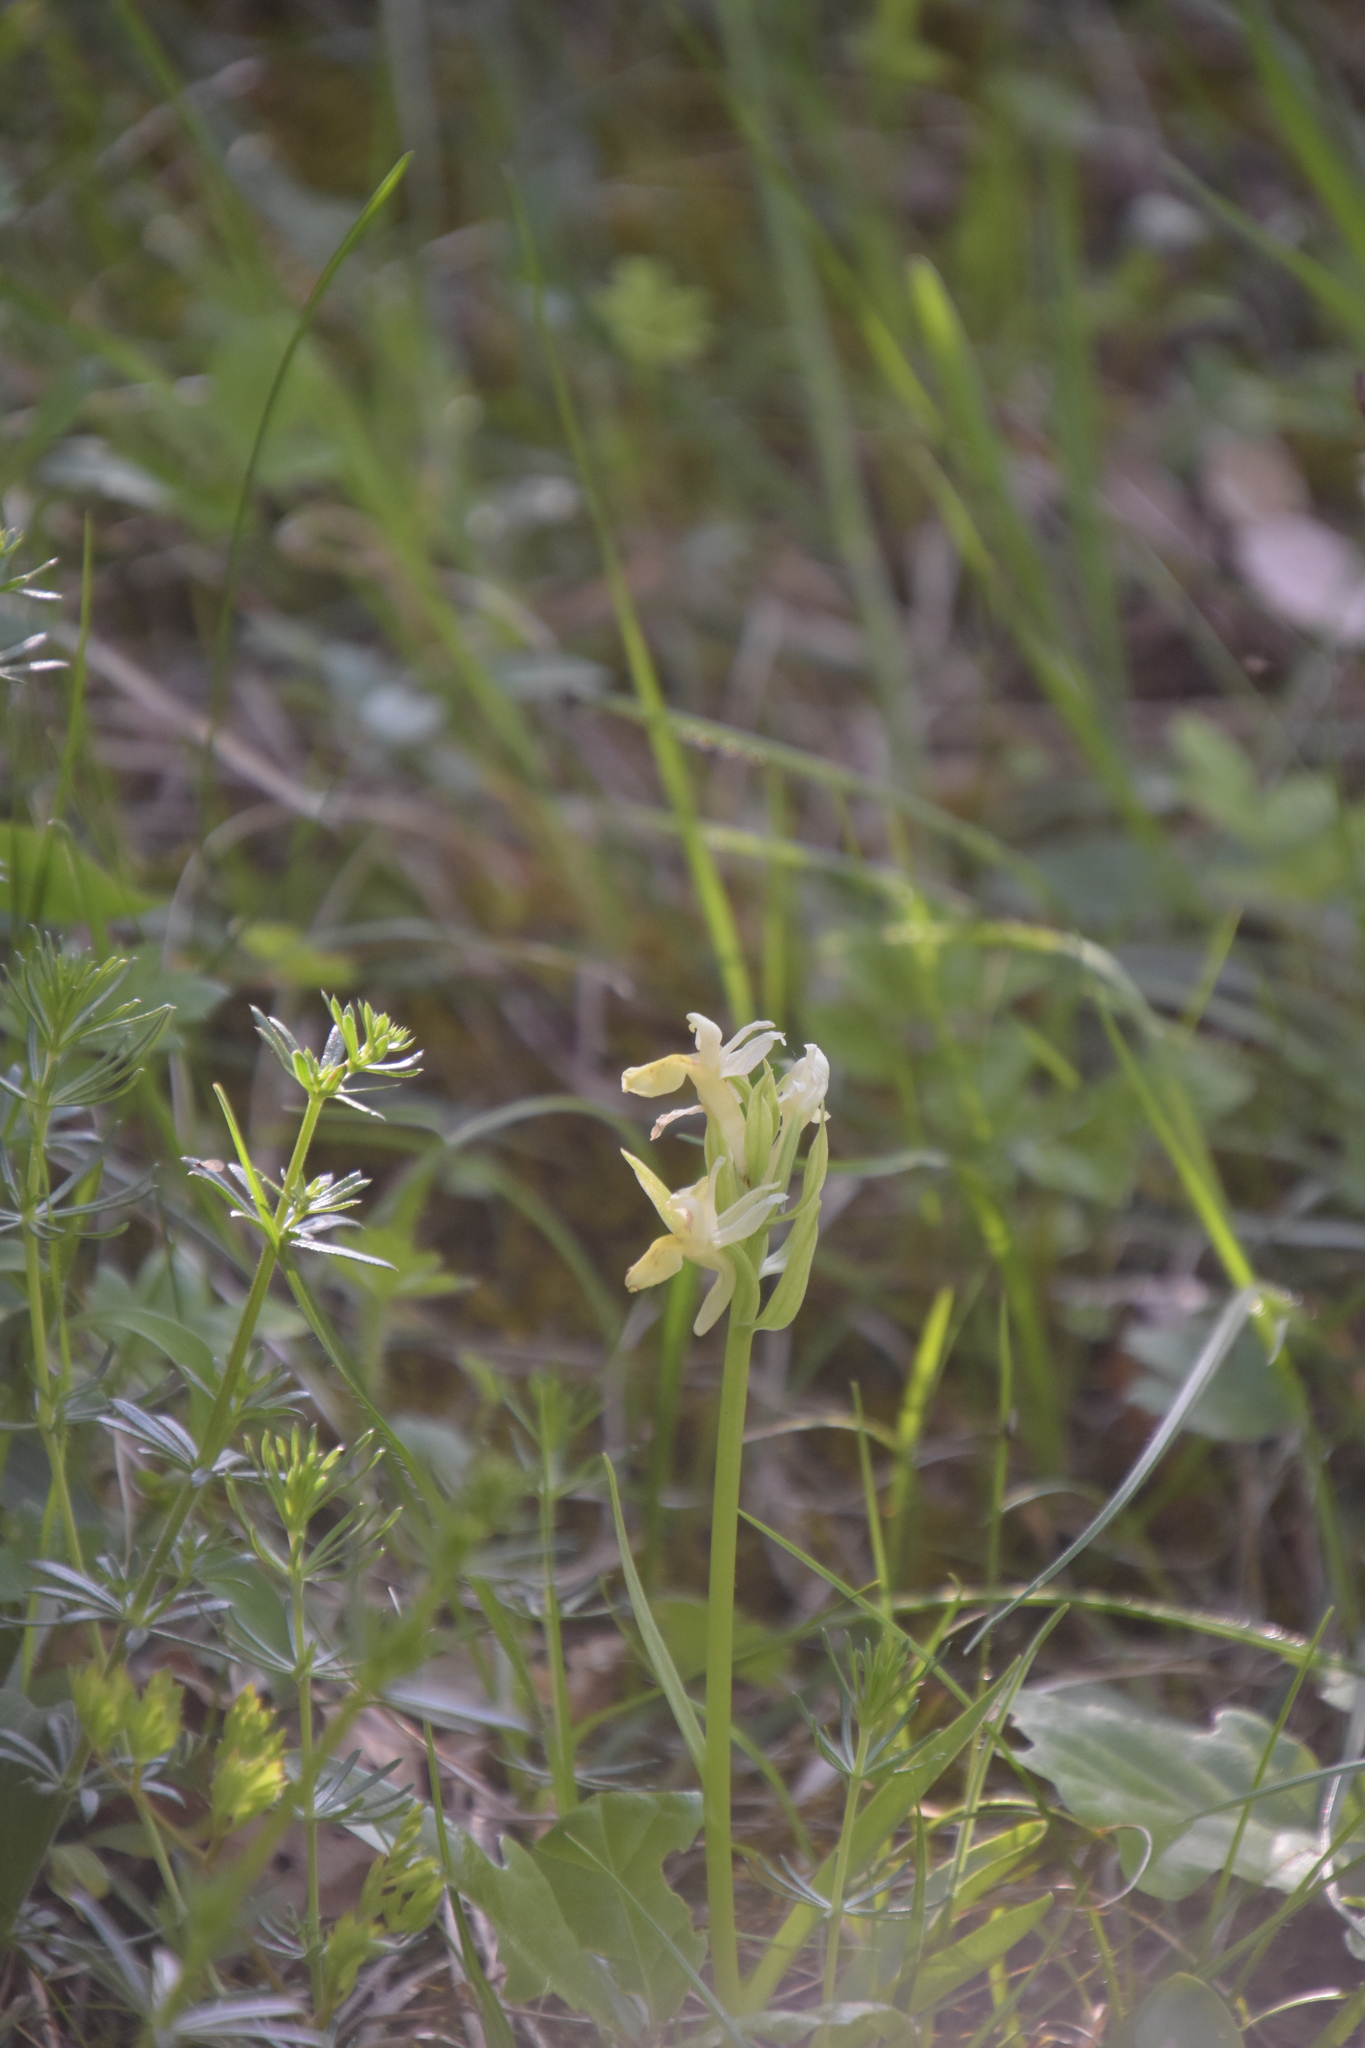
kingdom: Plantae
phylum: Tracheophyta
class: Liliopsida
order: Asparagales
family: Orchidaceae
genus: Dactylorhiza
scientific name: Dactylorhiza sambucina
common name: Elder-flowered orchid
